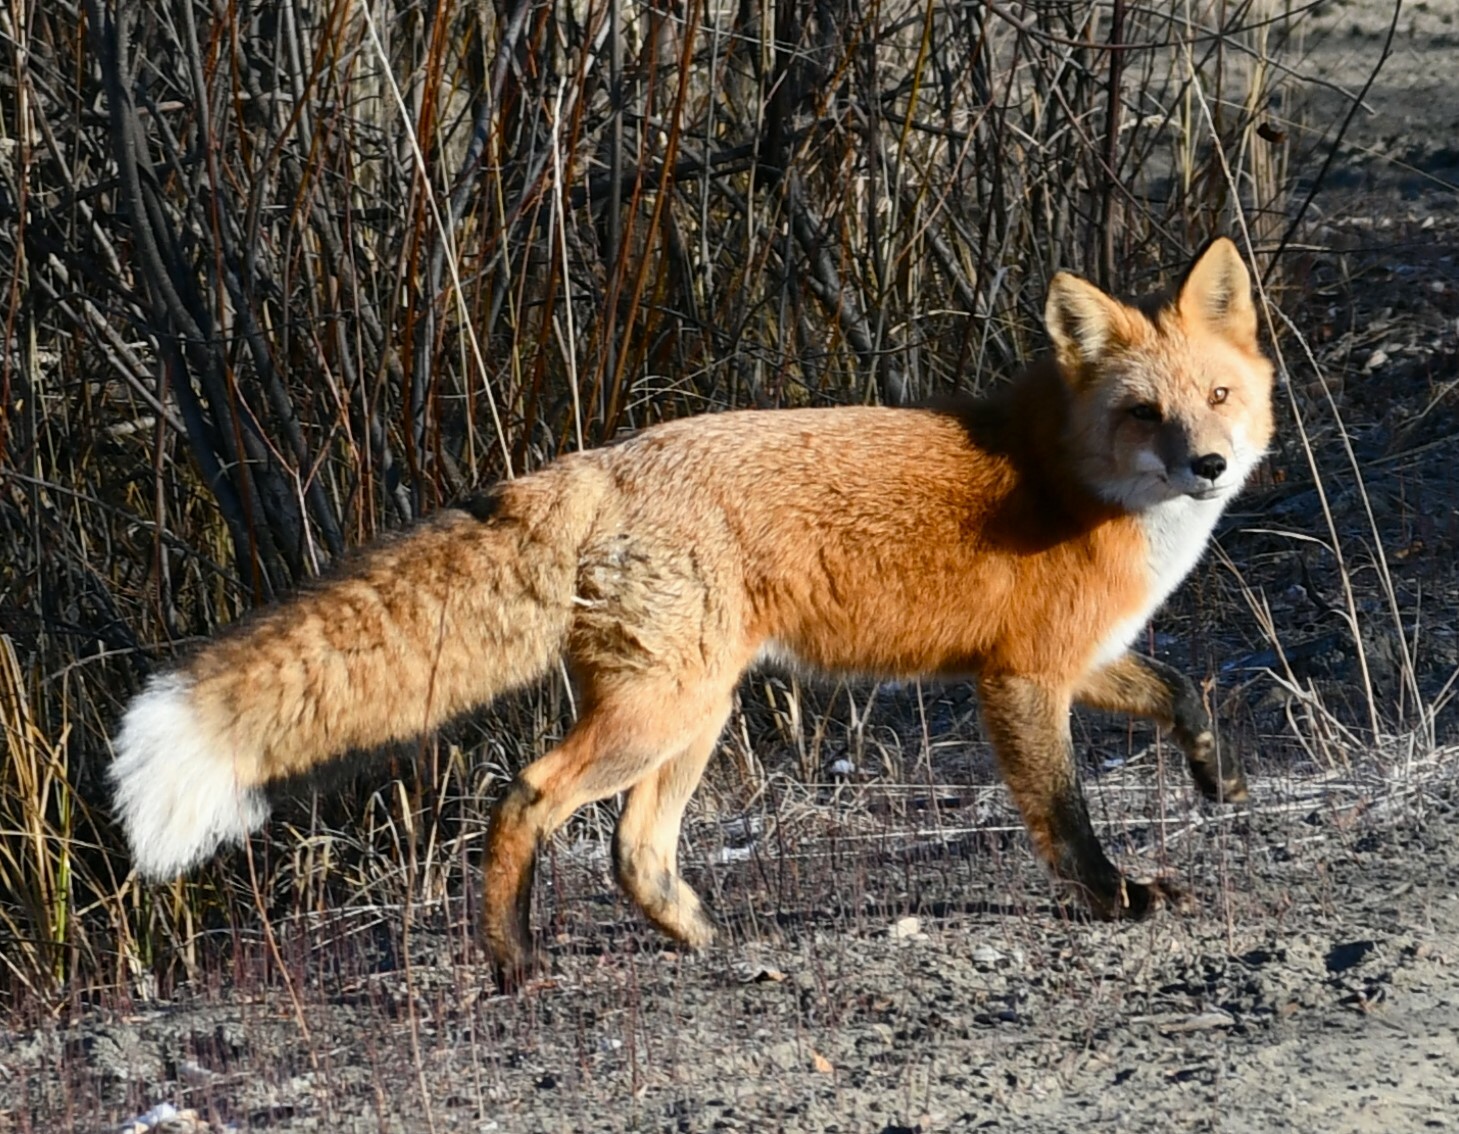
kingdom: Animalia
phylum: Chordata
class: Mammalia
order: Carnivora
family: Canidae
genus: Vulpes
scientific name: Vulpes vulpes
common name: Red fox
